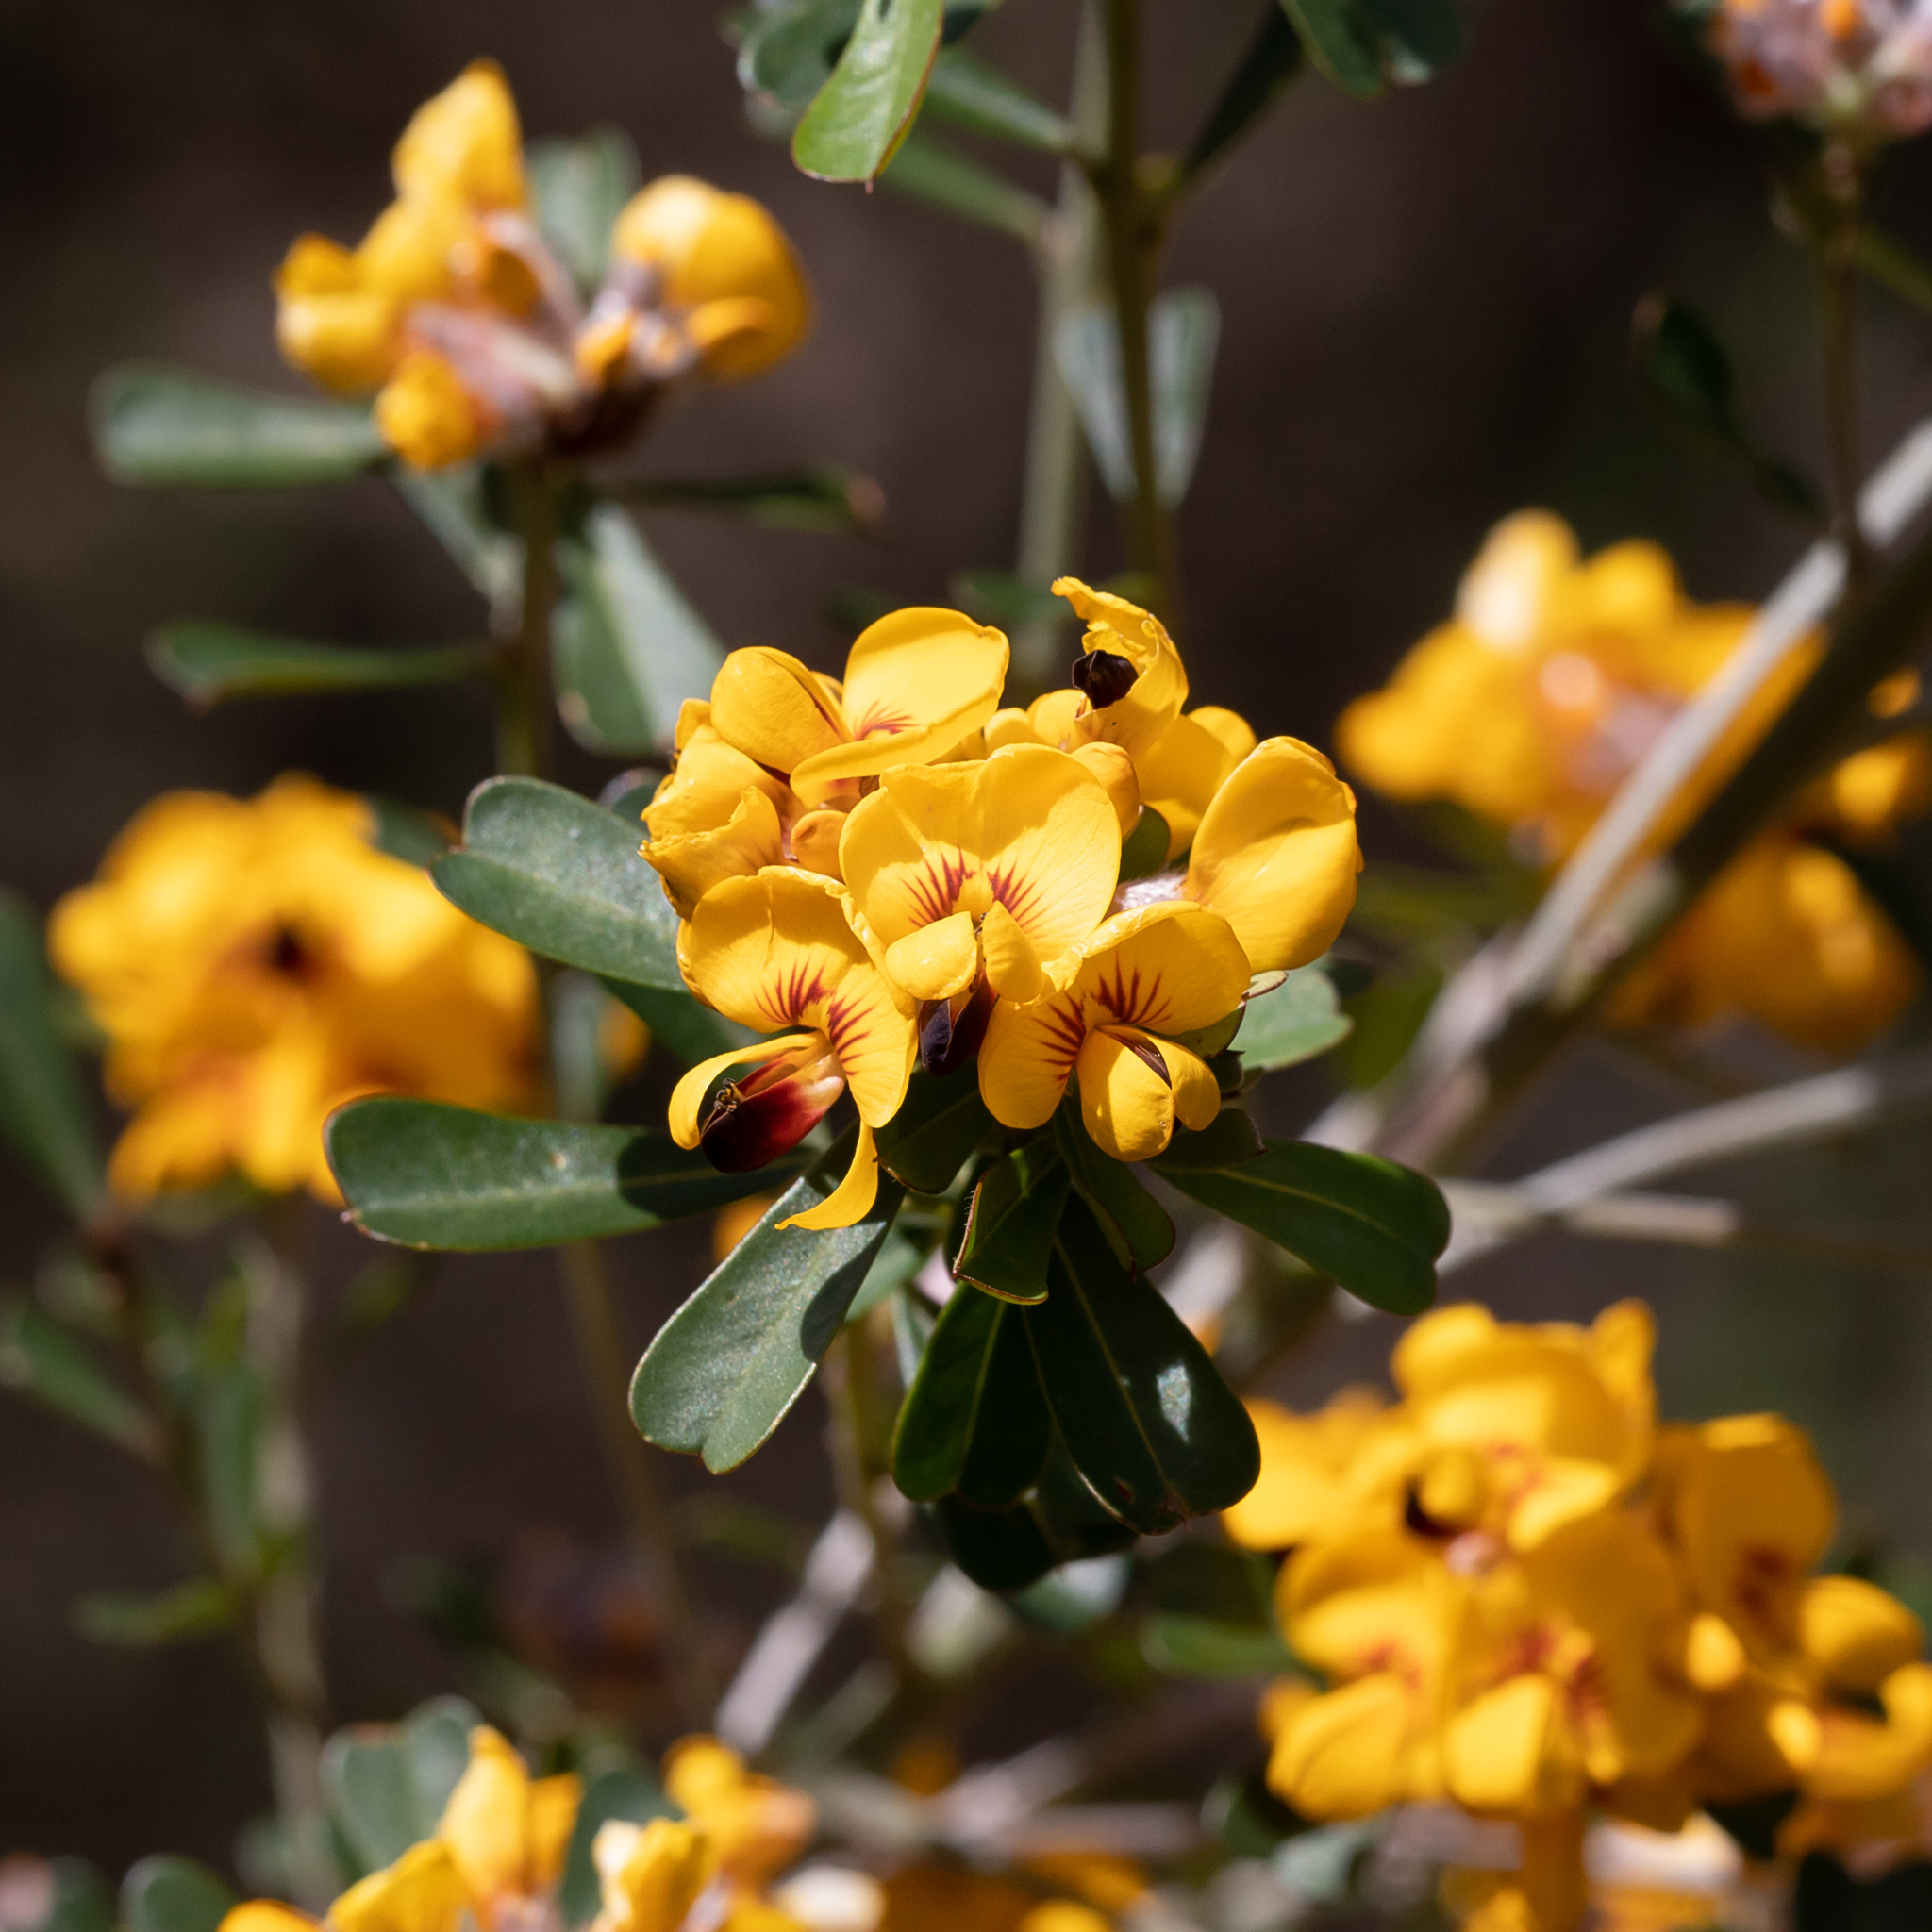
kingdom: Plantae
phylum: Tracheophyta
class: Magnoliopsida
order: Fabales
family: Fabaceae
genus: Pultenaea
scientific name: Pultenaea daphnoides
